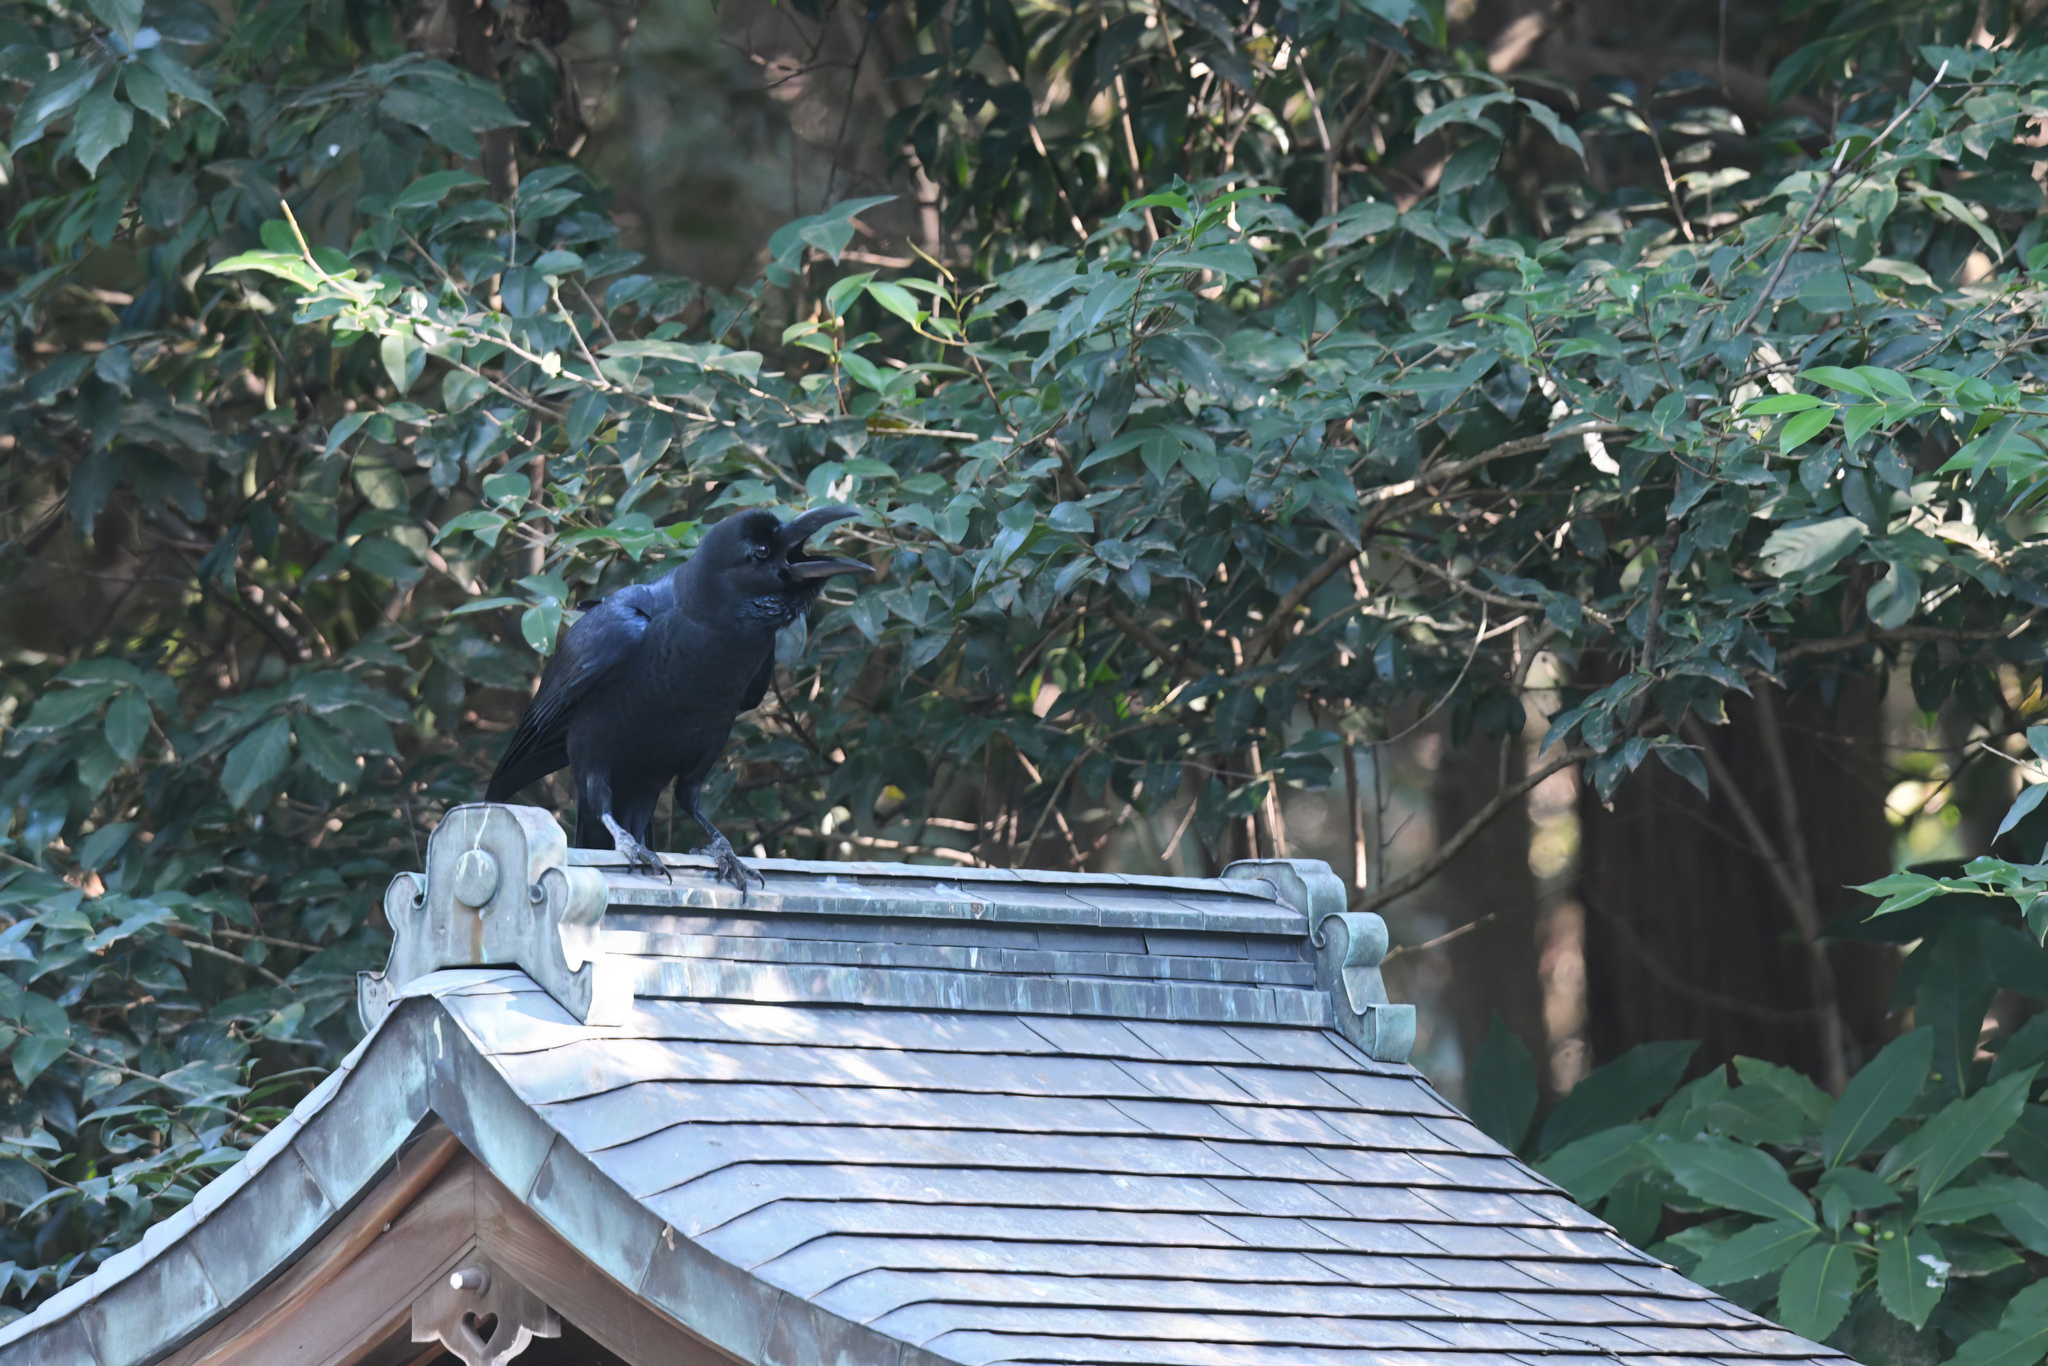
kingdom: Animalia
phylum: Chordata
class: Aves
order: Passeriformes
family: Corvidae
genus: Corvus
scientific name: Corvus macrorhynchos
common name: Large-billed crow
